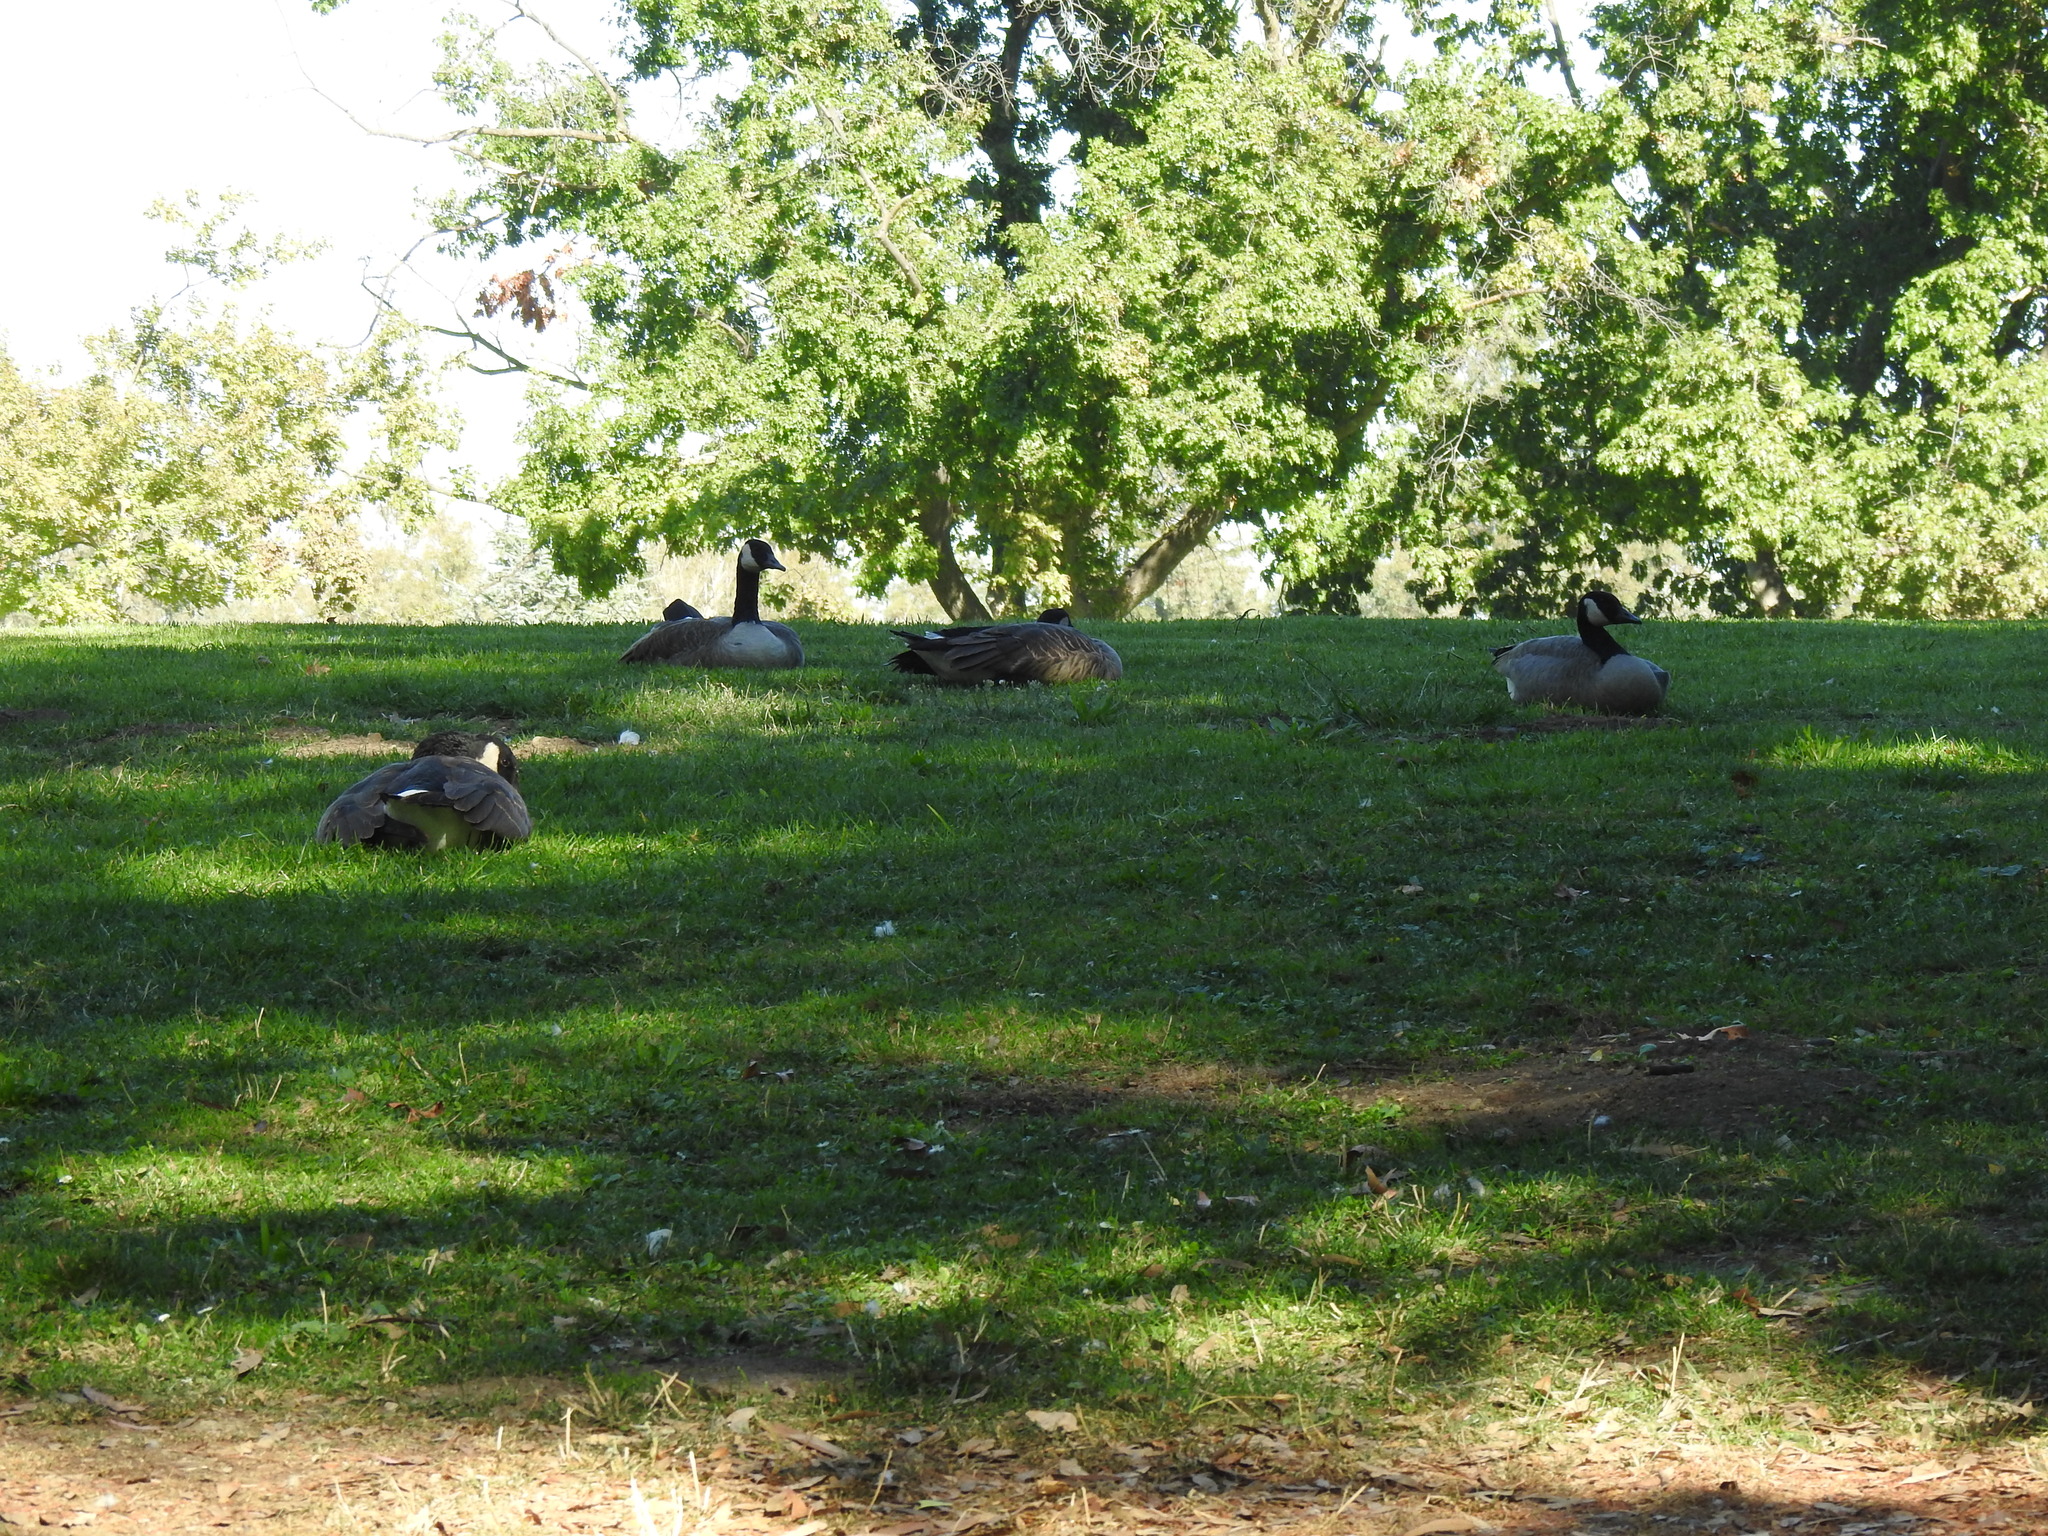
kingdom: Animalia
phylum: Chordata
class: Aves
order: Anseriformes
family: Anatidae
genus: Branta
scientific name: Branta canadensis
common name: Canada goose
